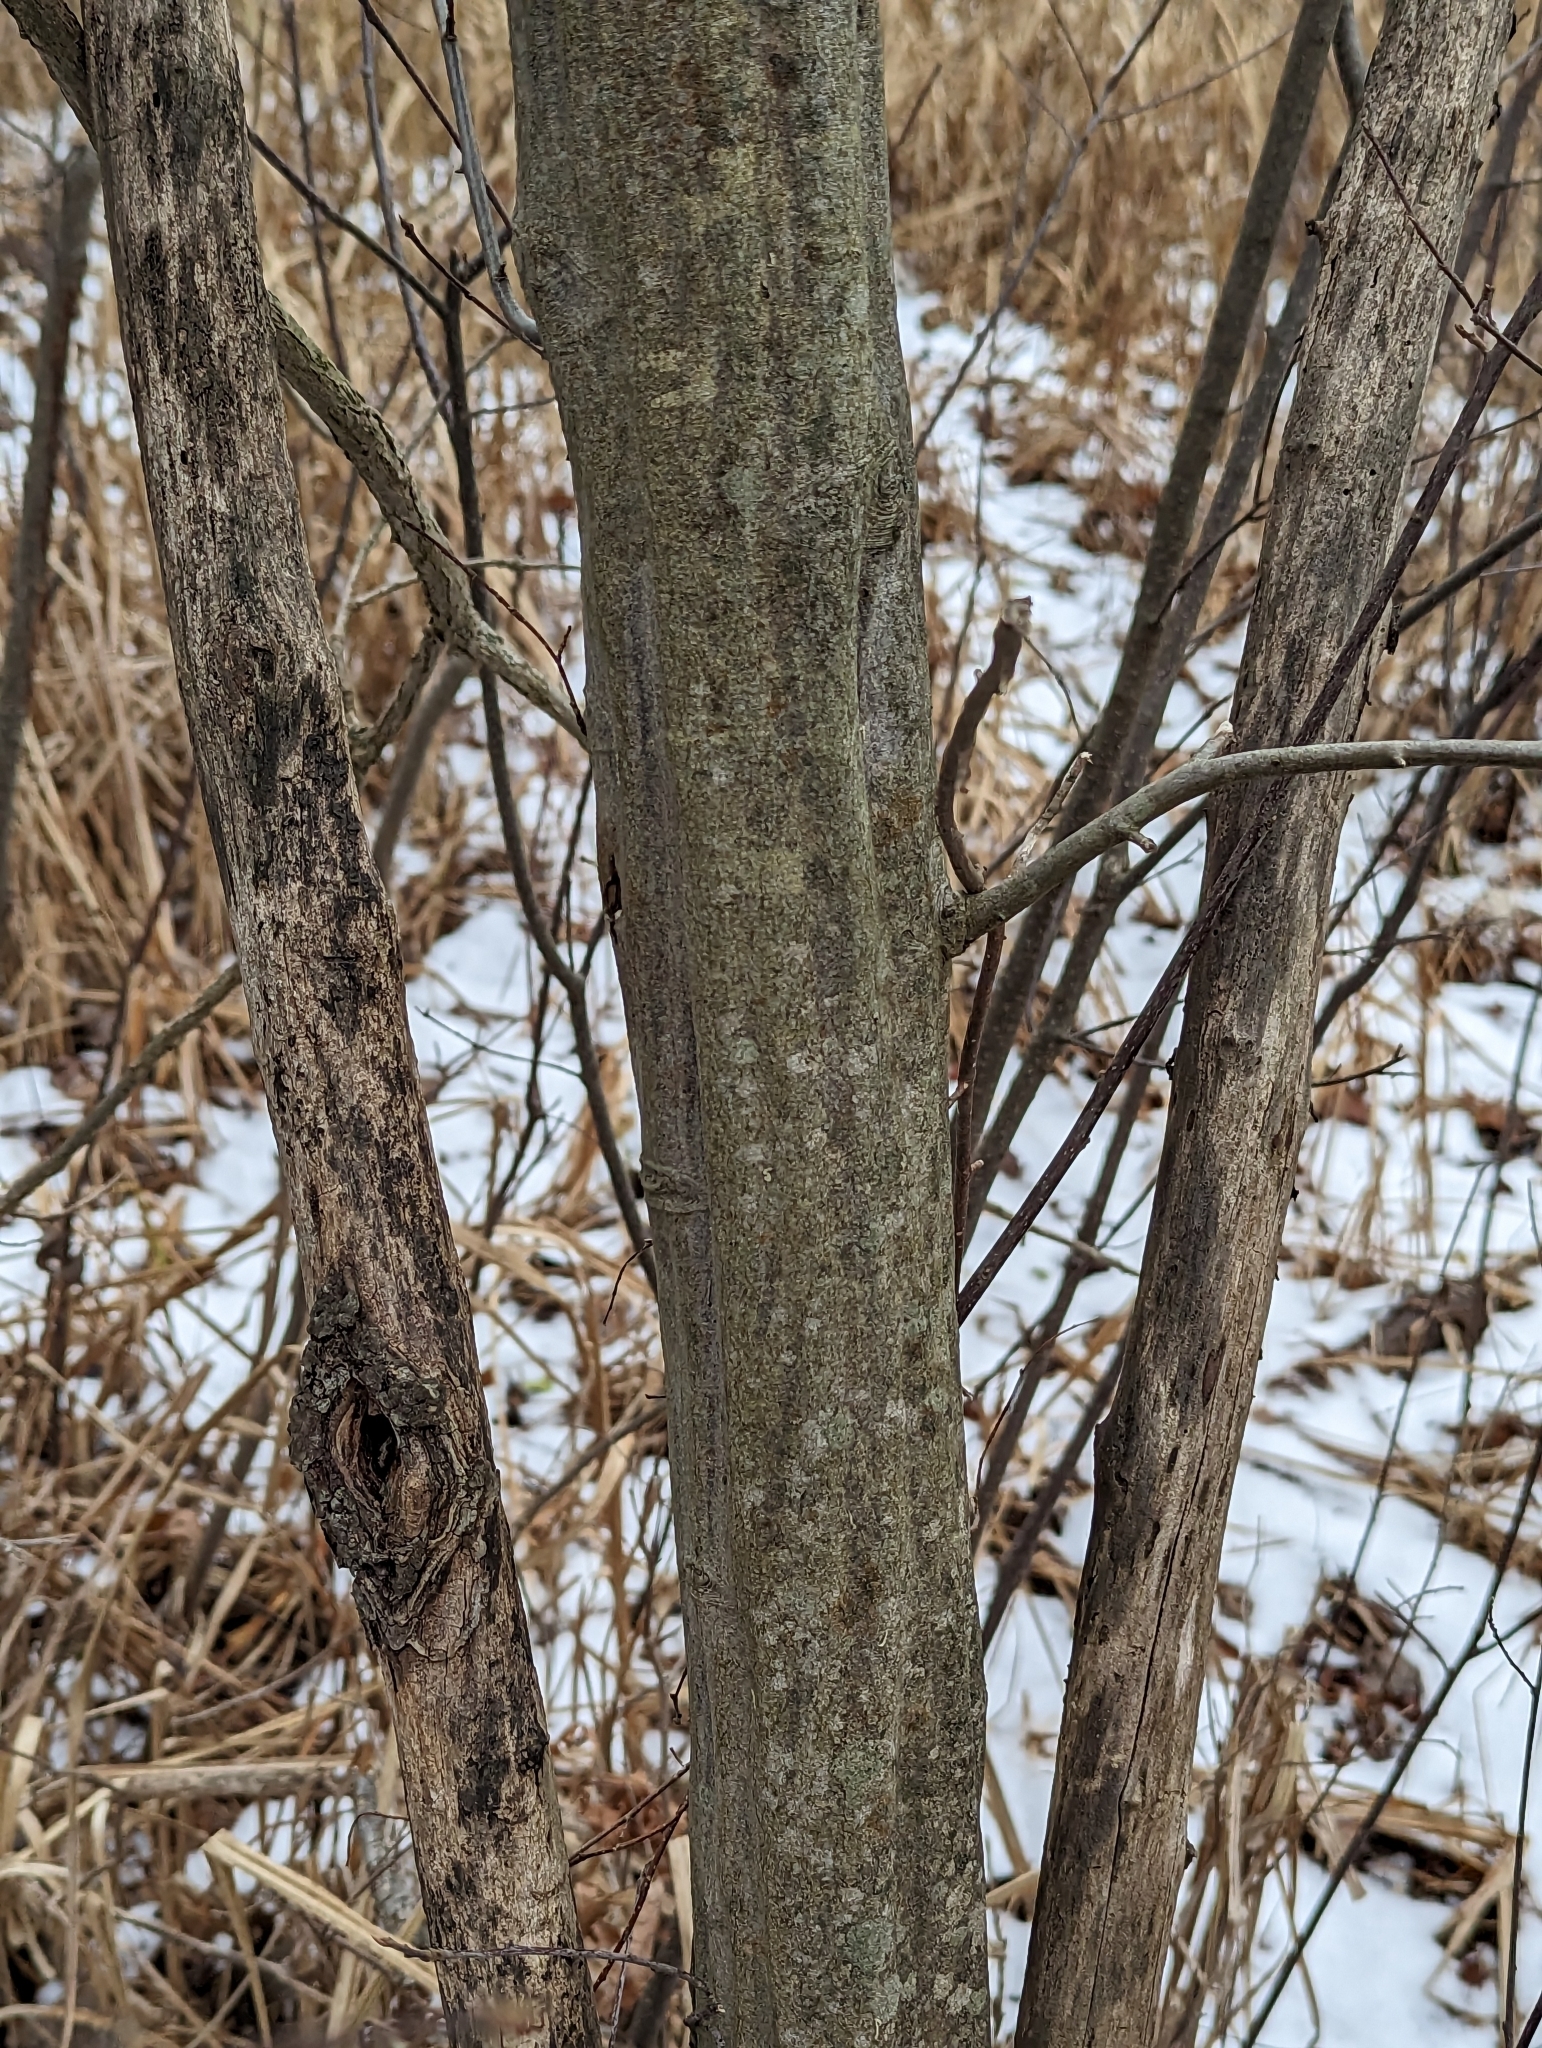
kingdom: Plantae
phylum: Tracheophyta
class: Magnoliopsida
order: Fagales
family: Betulaceae
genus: Carpinus
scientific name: Carpinus caroliniana
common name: American hornbeam
